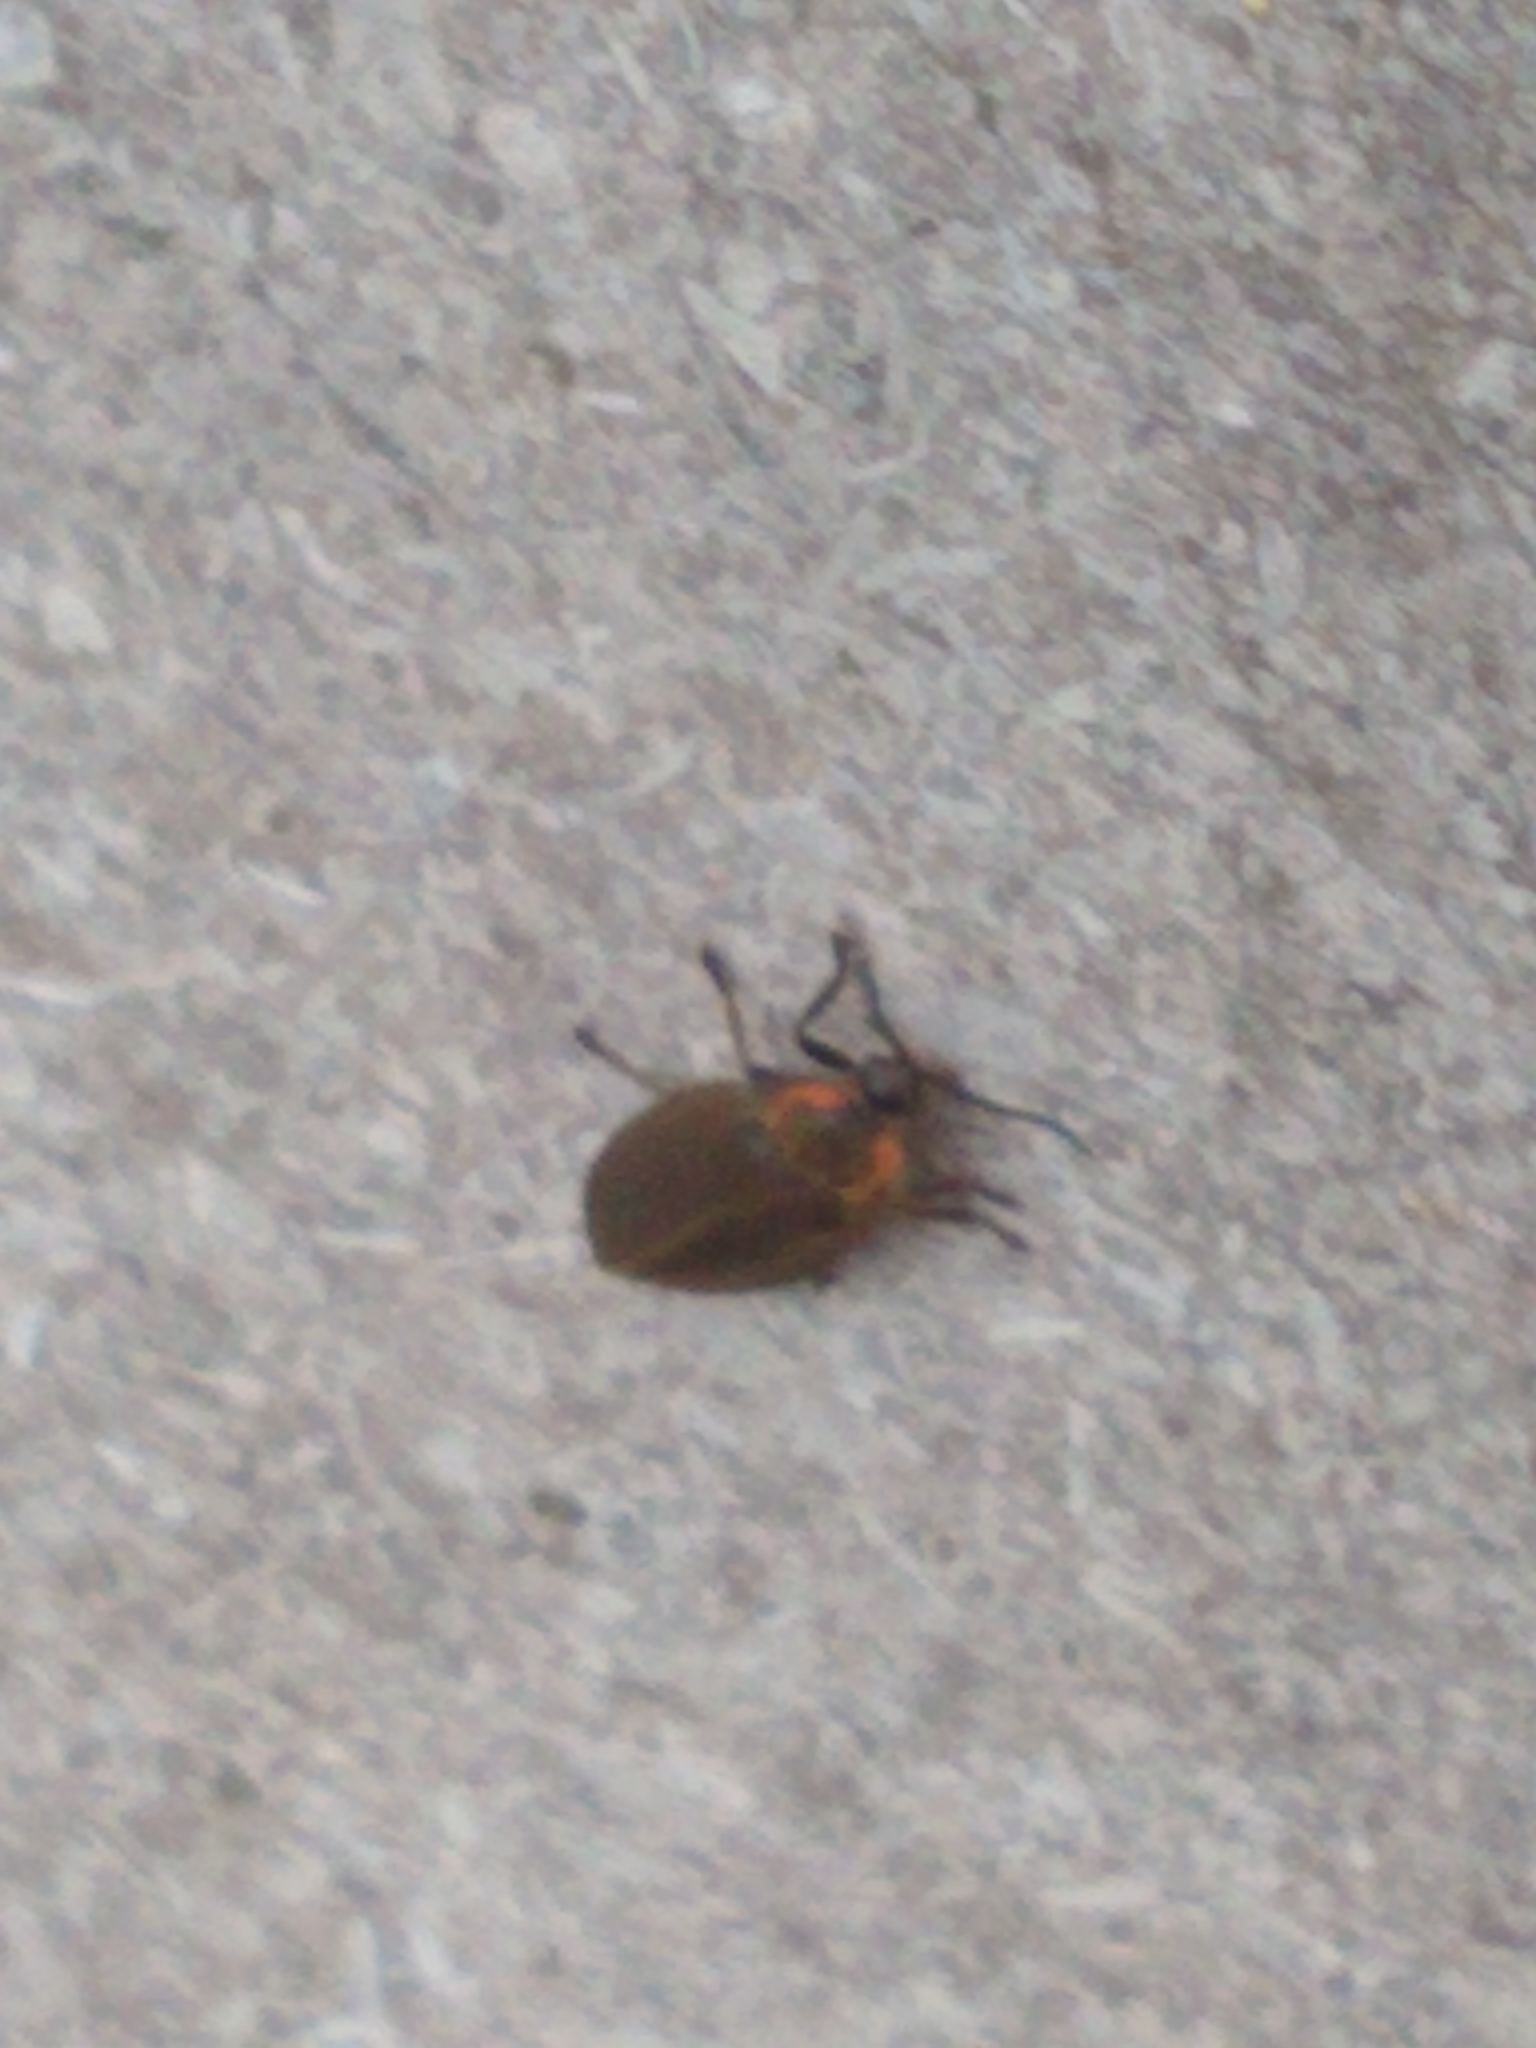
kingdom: Animalia
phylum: Arthropoda
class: Insecta
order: Coleoptera
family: Lampyridae
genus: Photinus
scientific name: Photinus corrusca
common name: Winter firefly
